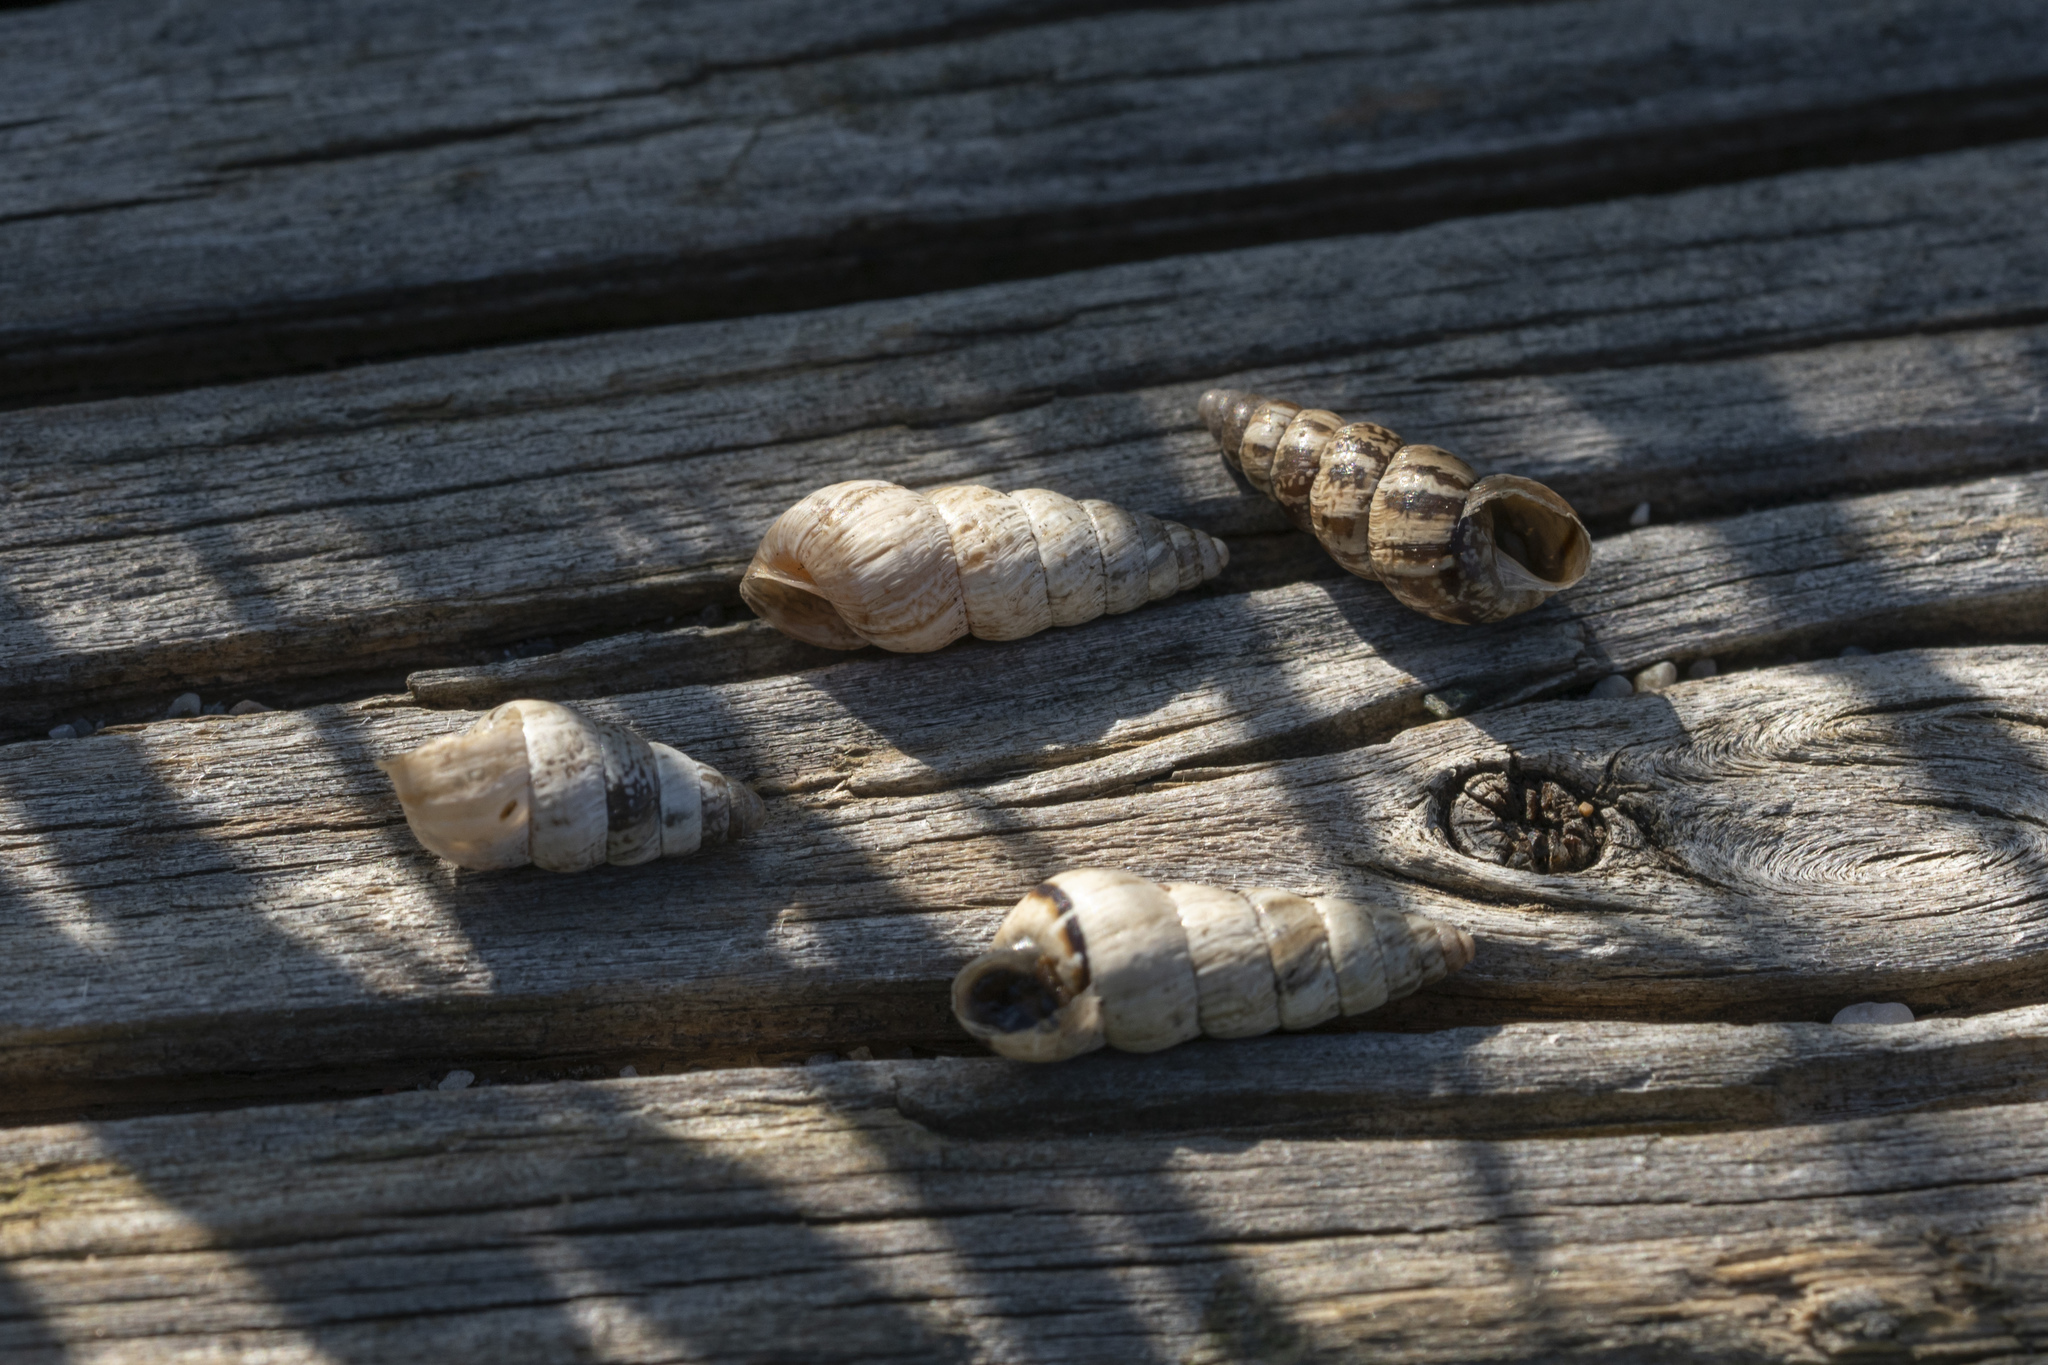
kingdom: Animalia
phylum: Mollusca
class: Gastropoda
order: Stylommatophora
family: Geomitridae
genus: Cochlicella
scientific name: Cochlicella acuta
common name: Pointed snail
